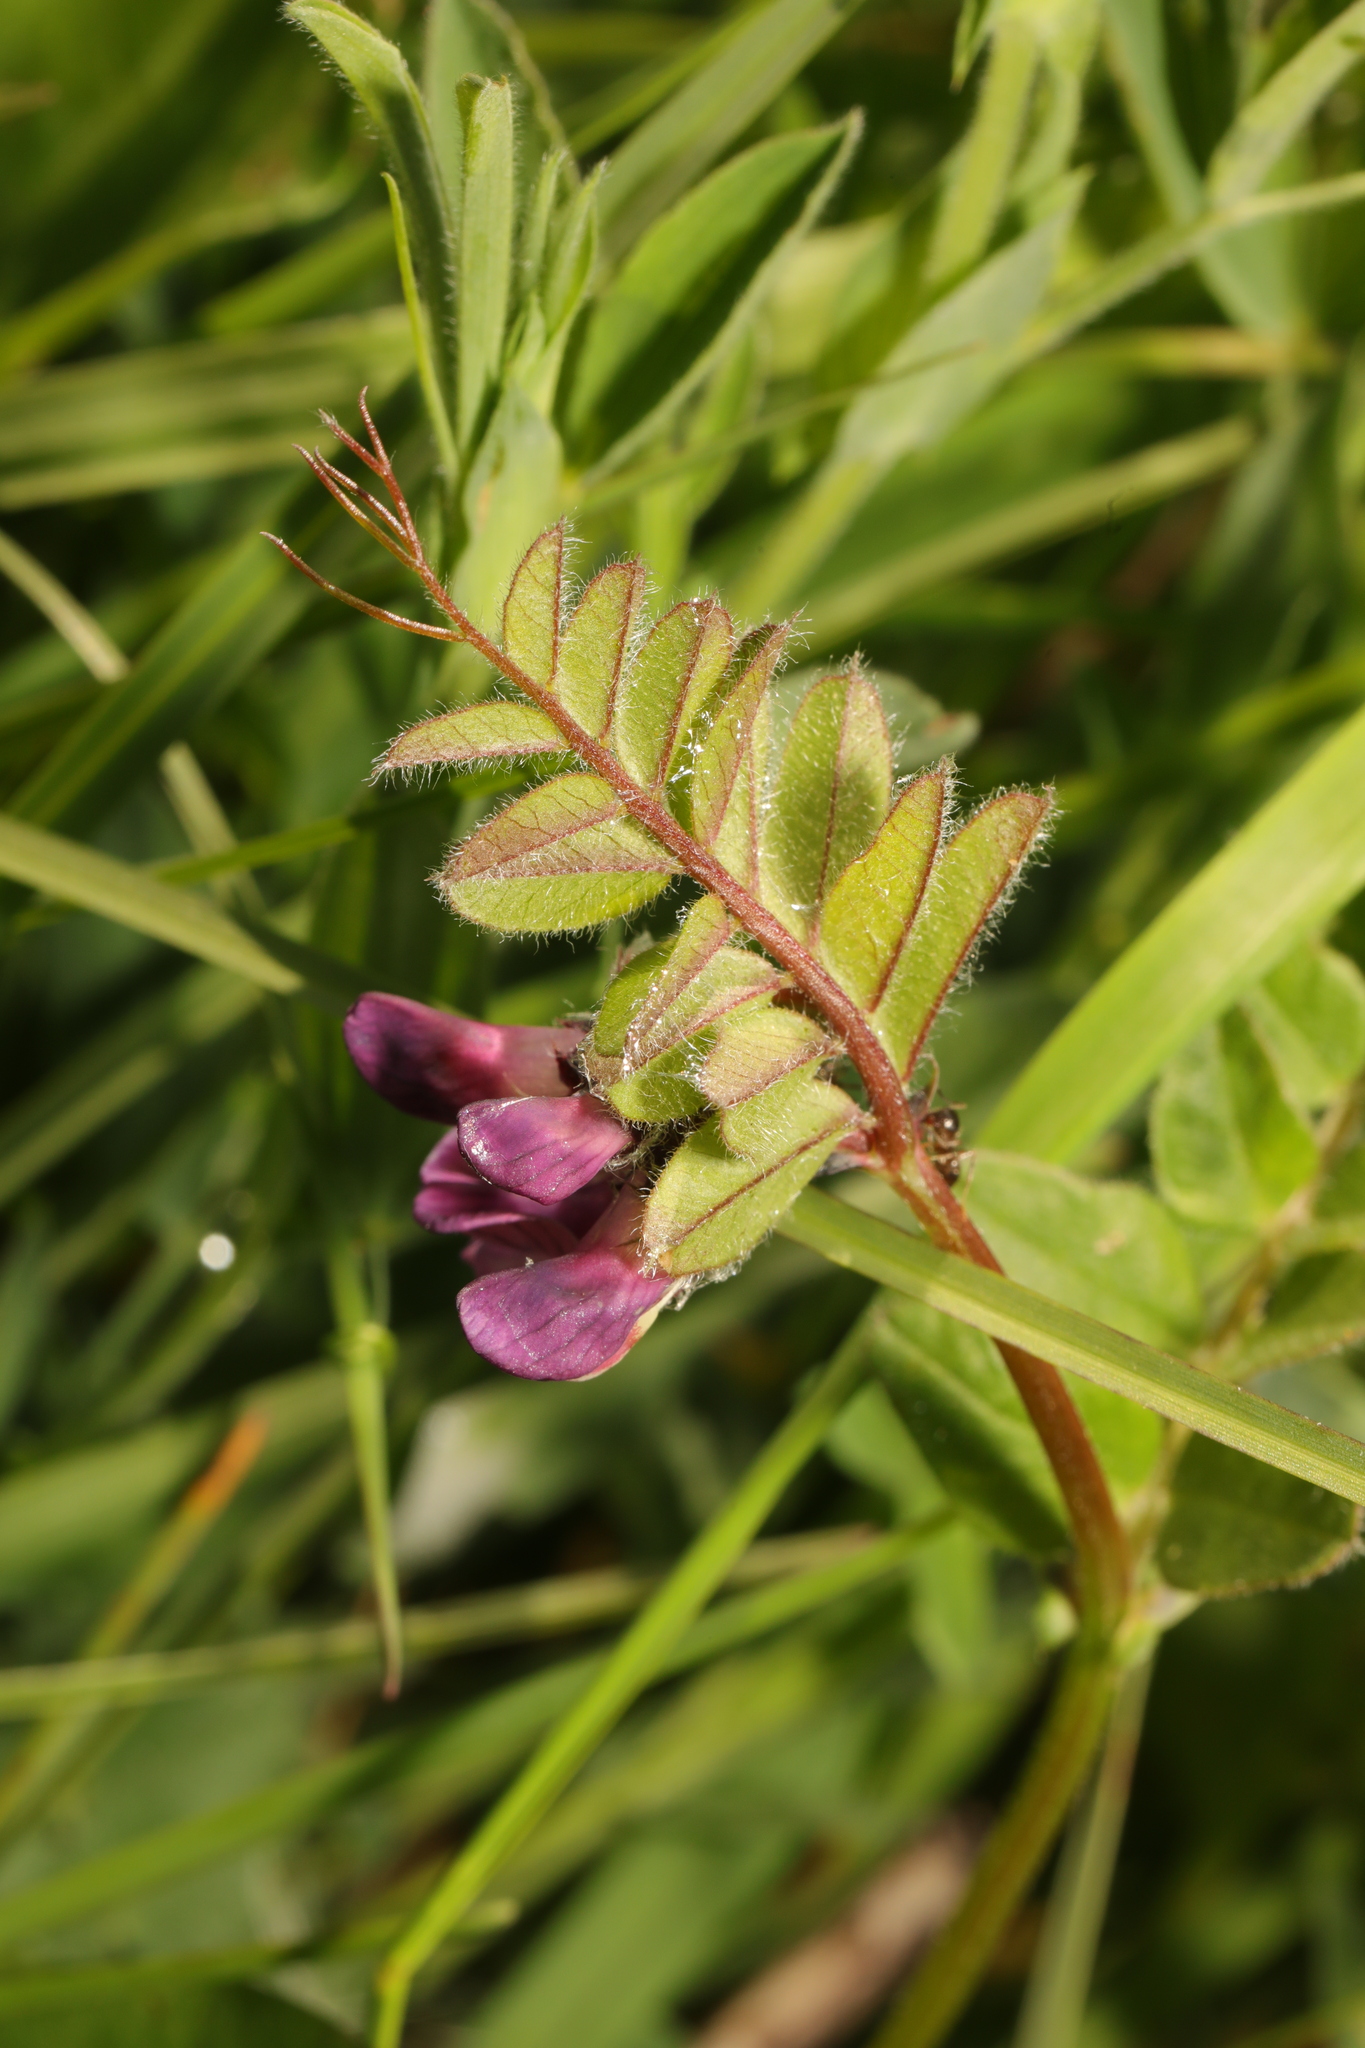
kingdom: Plantae
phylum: Tracheophyta
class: Magnoliopsida
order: Fabales
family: Fabaceae
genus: Vicia
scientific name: Vicia sepium
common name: Bush vetch
